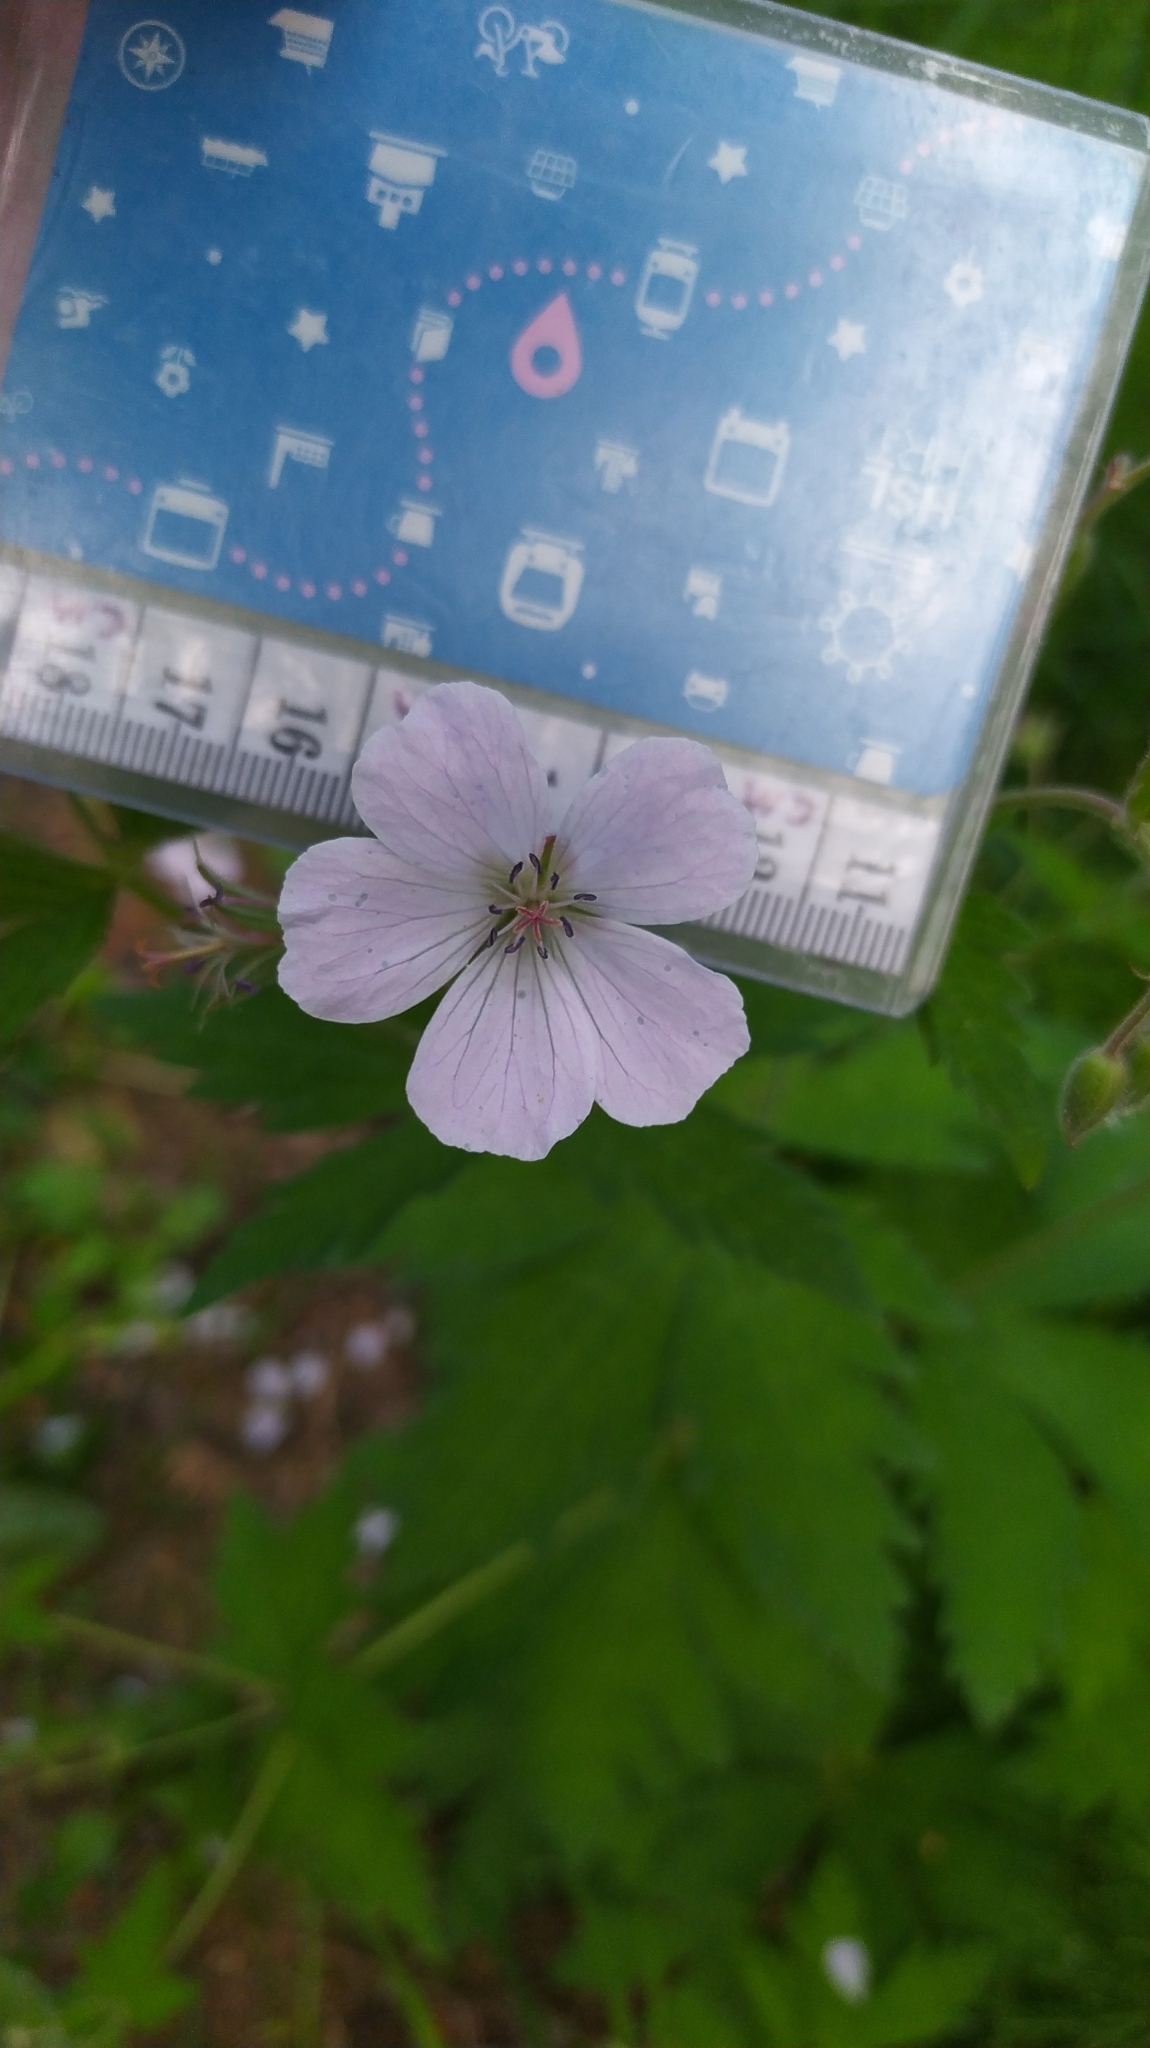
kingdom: Plantae
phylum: Tracheophyta
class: Magnoliopsida
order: Geraniales
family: Geraniaceae
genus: Geranium
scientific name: Geranium sylvaticum
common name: Wood crane's-bill
